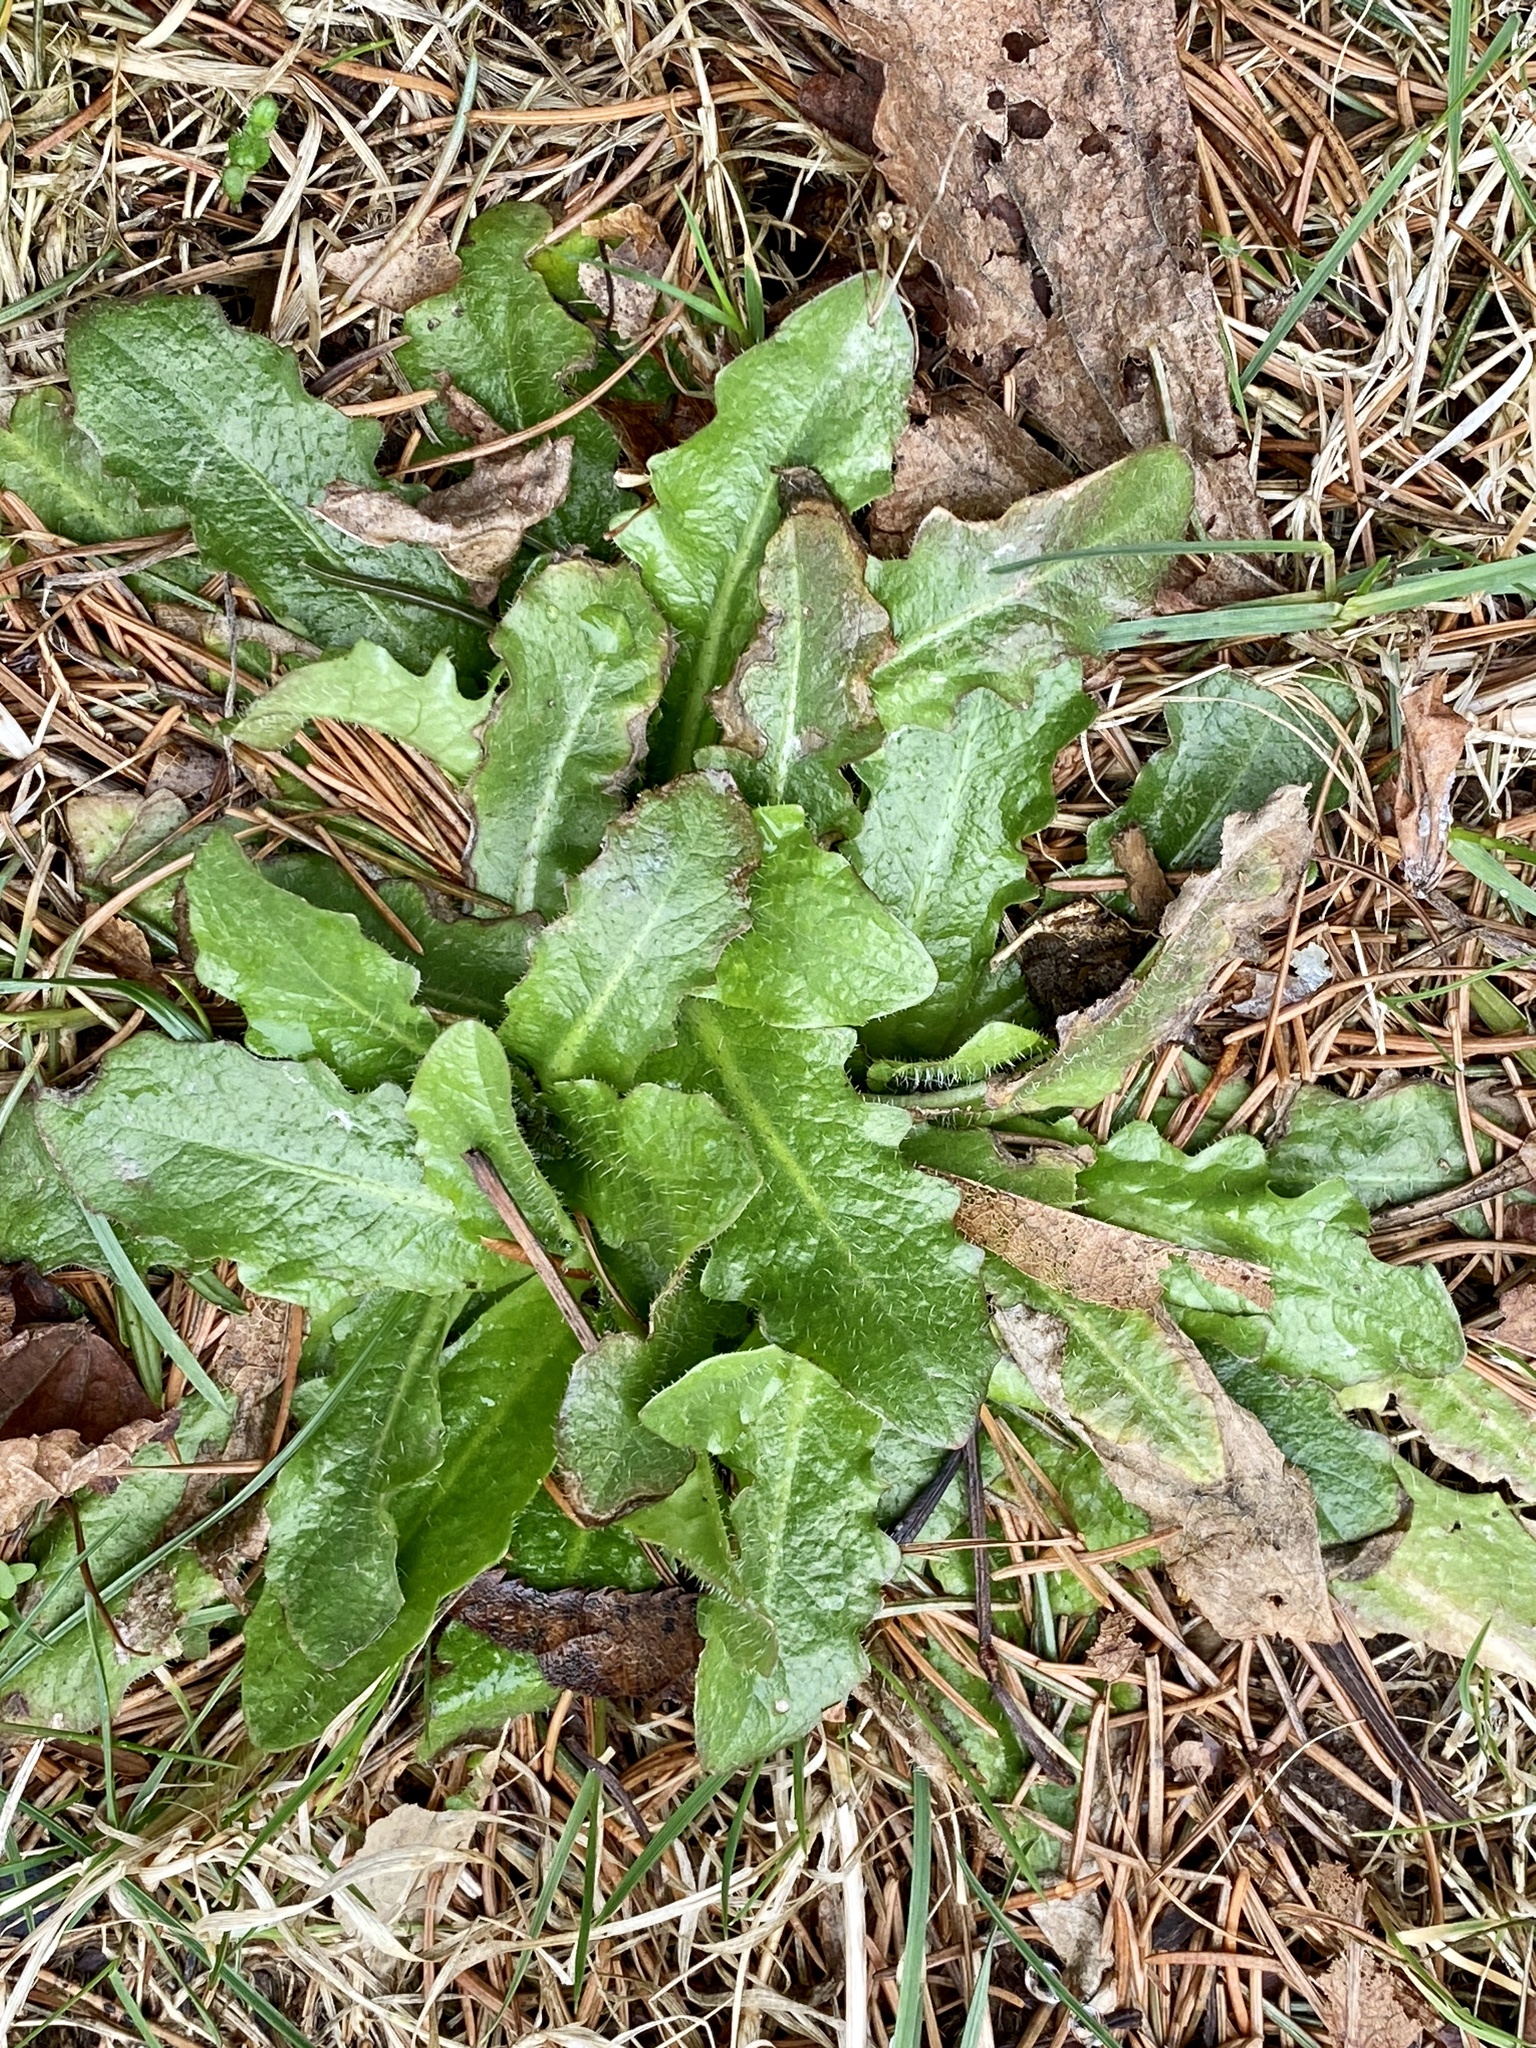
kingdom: Plantae
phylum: Tracheophyta
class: Magnoliopsida
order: Asterales
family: Asteraceae
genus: Hypochaeris
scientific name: Hypochaeris radicata
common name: Flatweed
